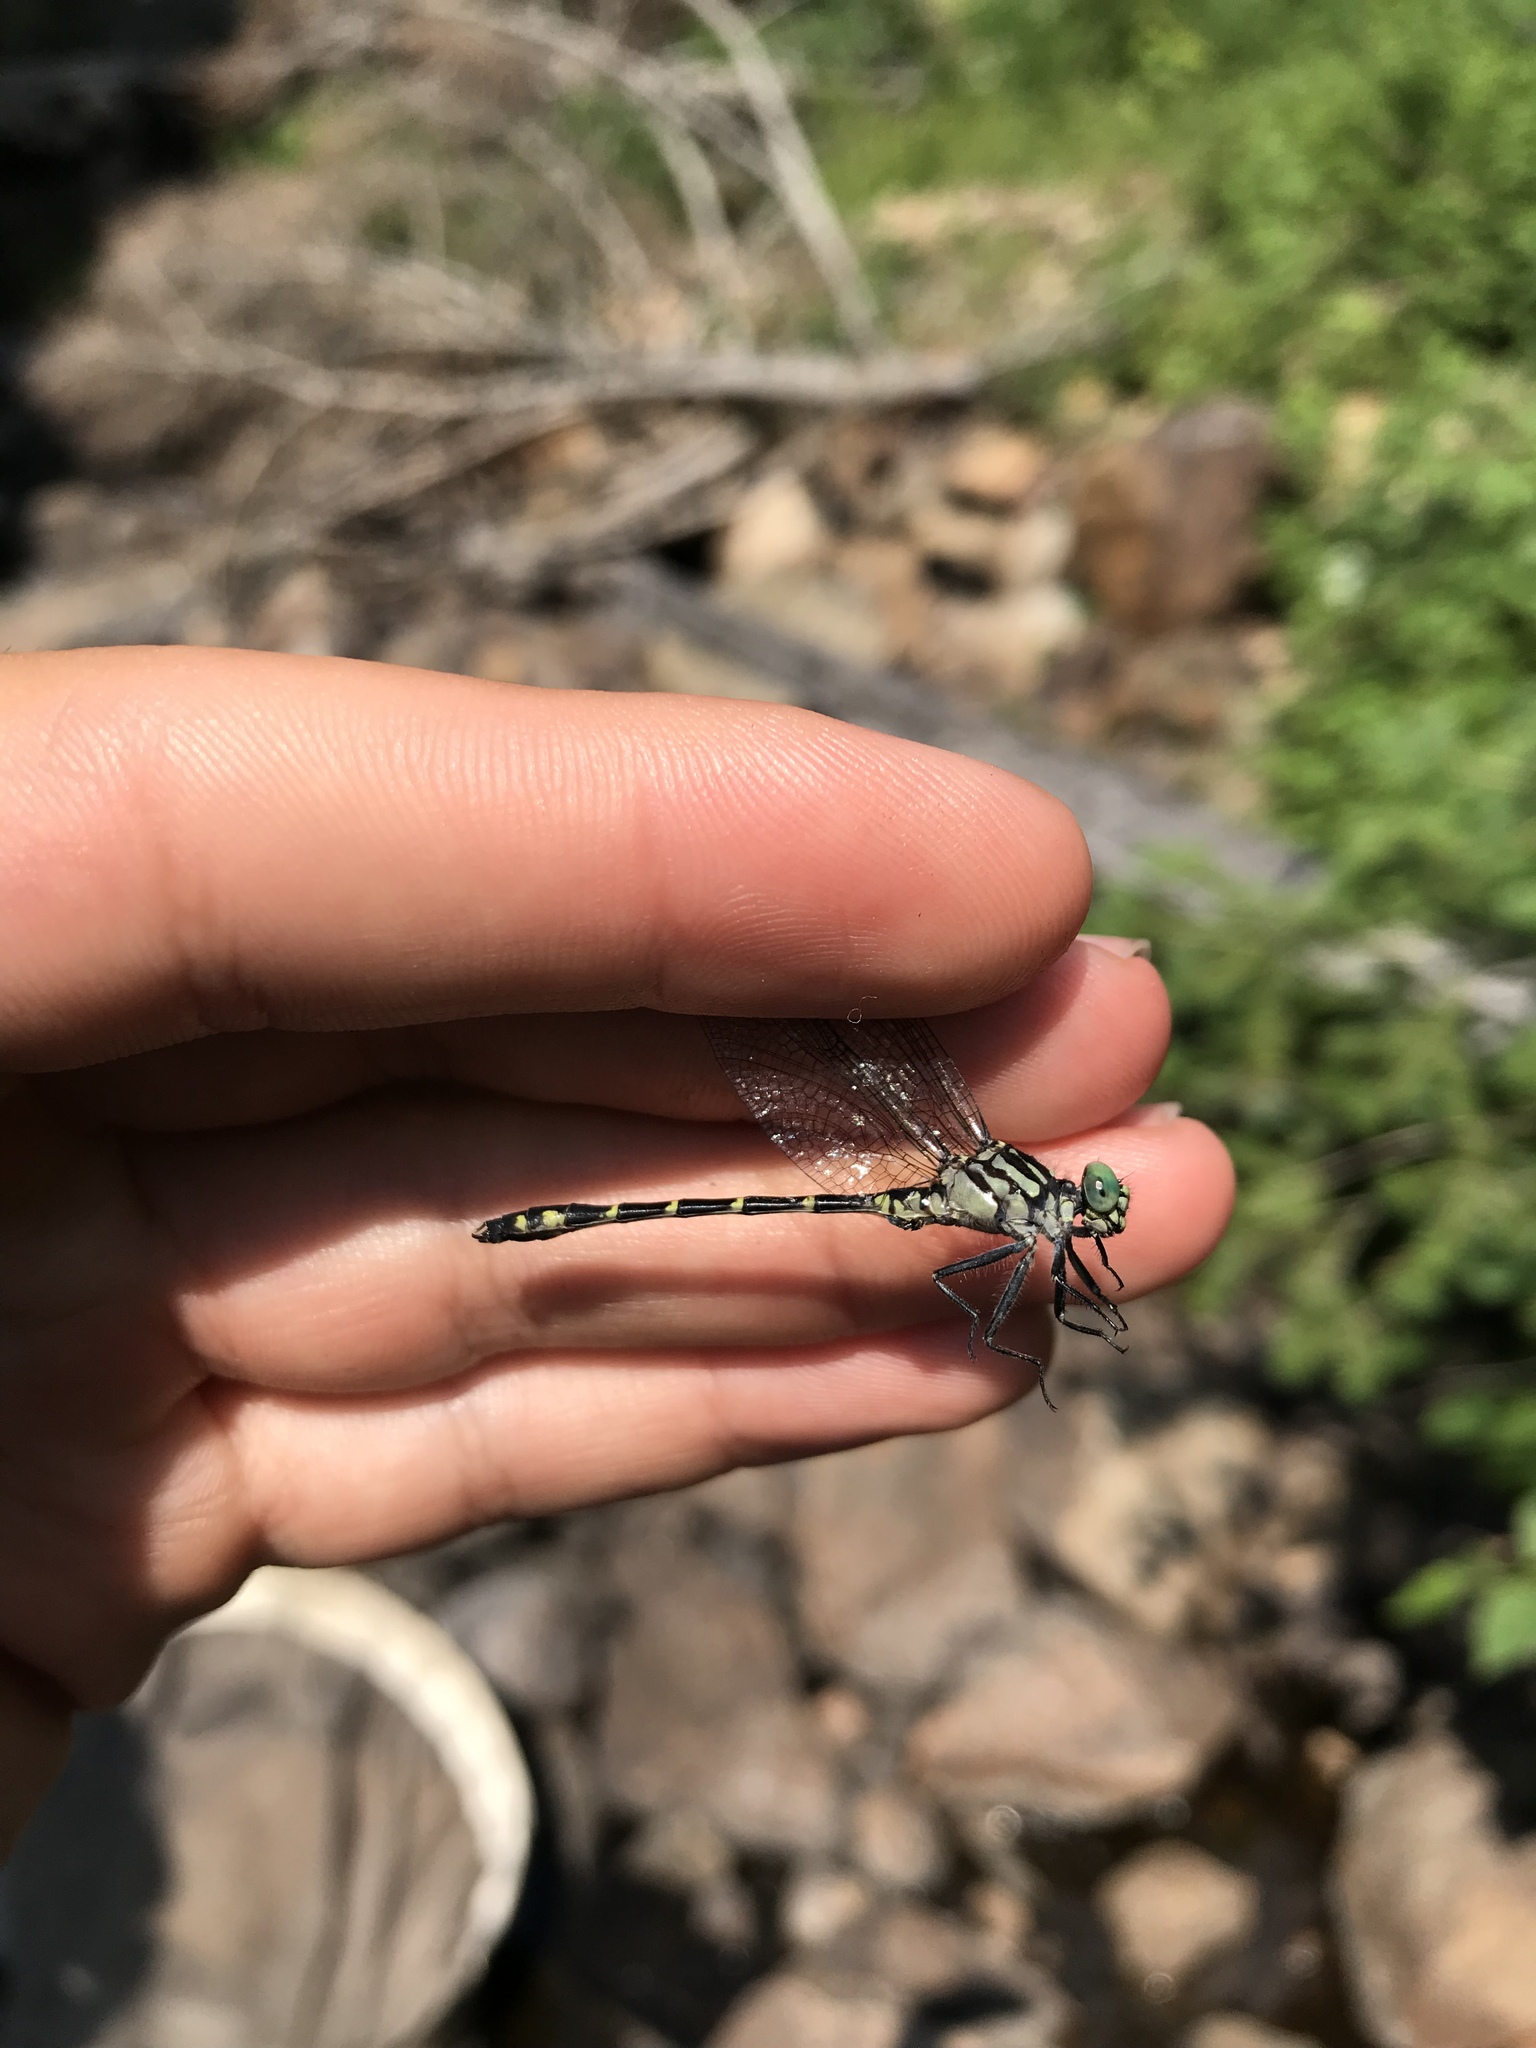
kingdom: Animalia
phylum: Arthropoda
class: Insecta
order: Odonata
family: Gomphidae
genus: Stylogomphus
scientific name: Stylogomphus albistylus
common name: Eastern least clubtail
